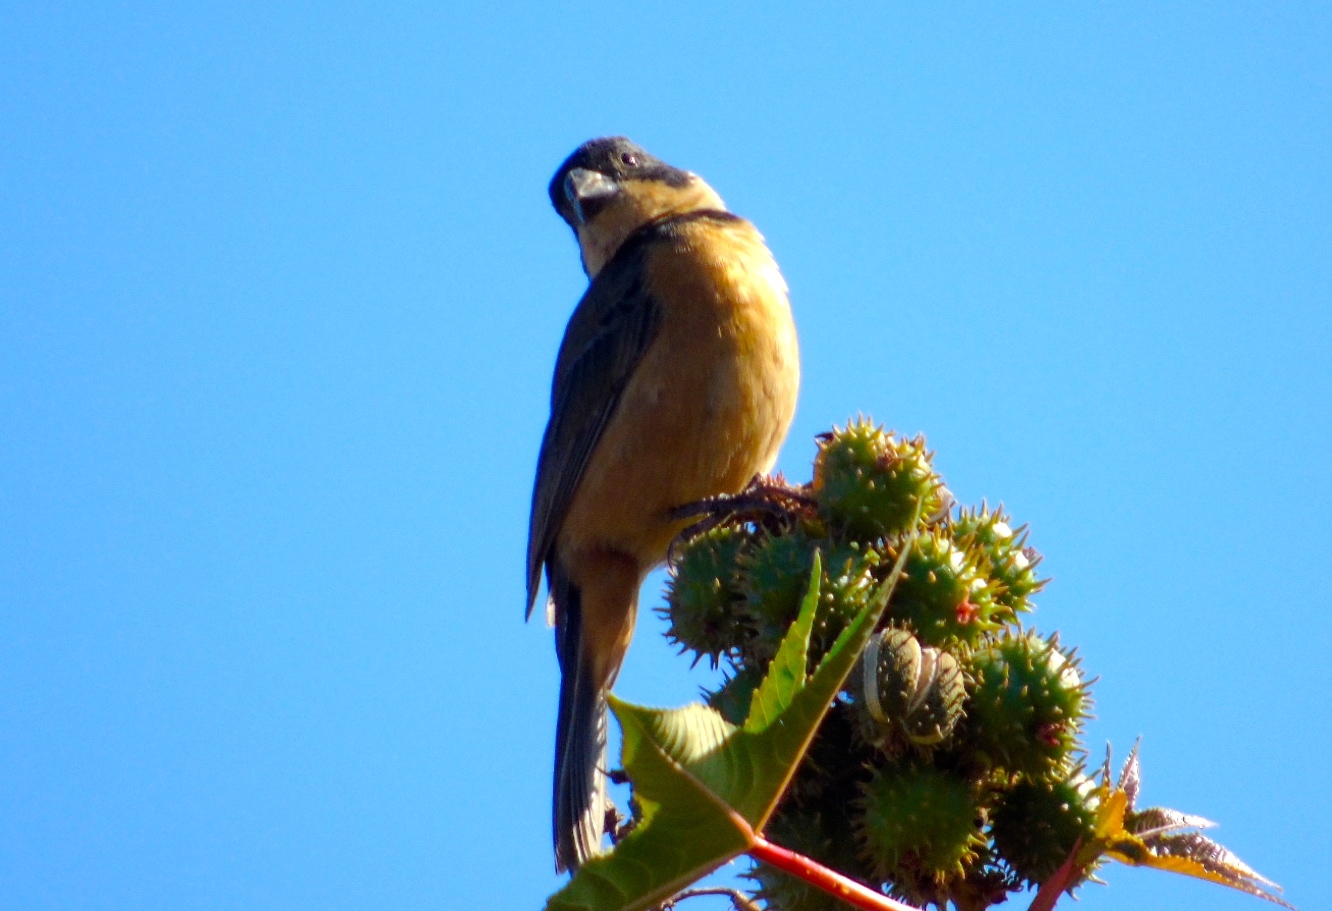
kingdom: Animalia
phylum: Chordata
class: Aves
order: Passeriformes
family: Thraupidae
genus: Sporophila
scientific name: Sporophila torqueola
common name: White-collared seedeater
